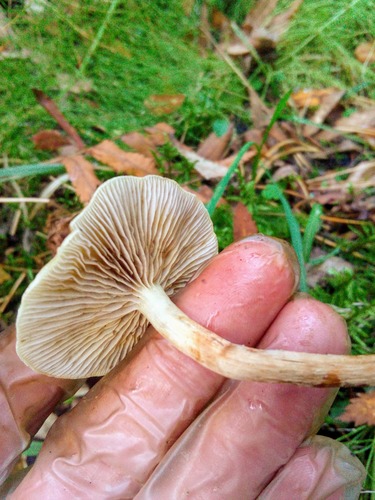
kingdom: Fungi
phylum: Basidiomycota
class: Agaricomycetes
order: Agaricales
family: Strophariaceae
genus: Hypholoma
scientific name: Hypholoma capnoides
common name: Conifer tuft
